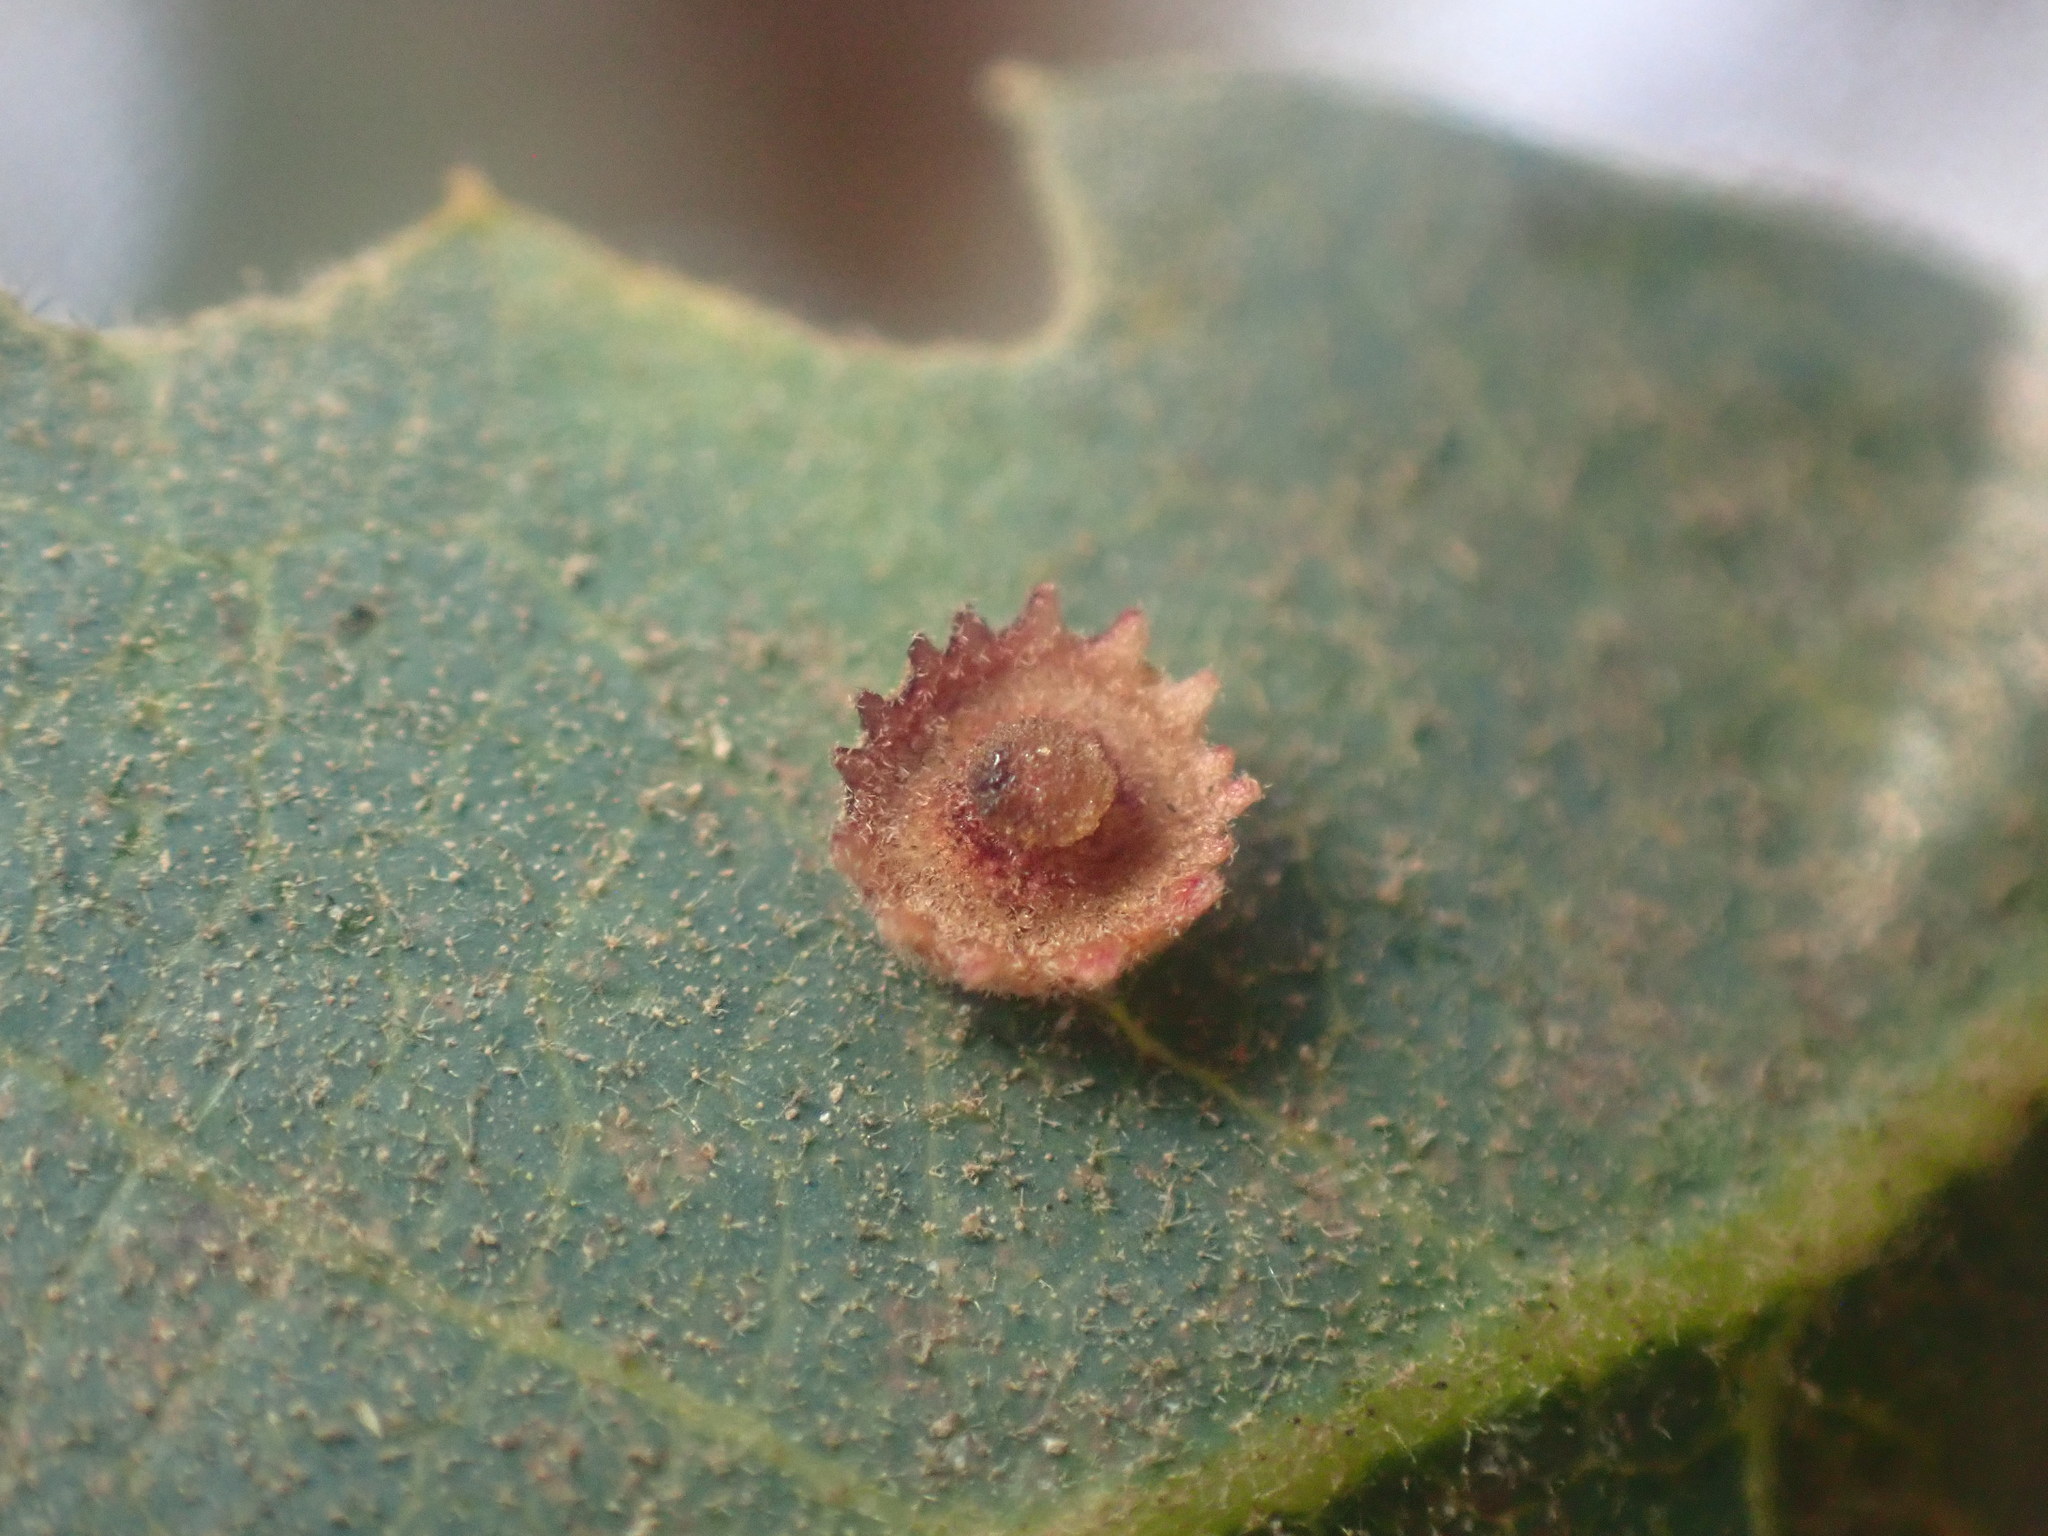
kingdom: Animalia
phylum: Arthropoda
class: Insecta
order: Hymenoptera
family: Cynipidae
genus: Andricus
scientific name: Andricus
